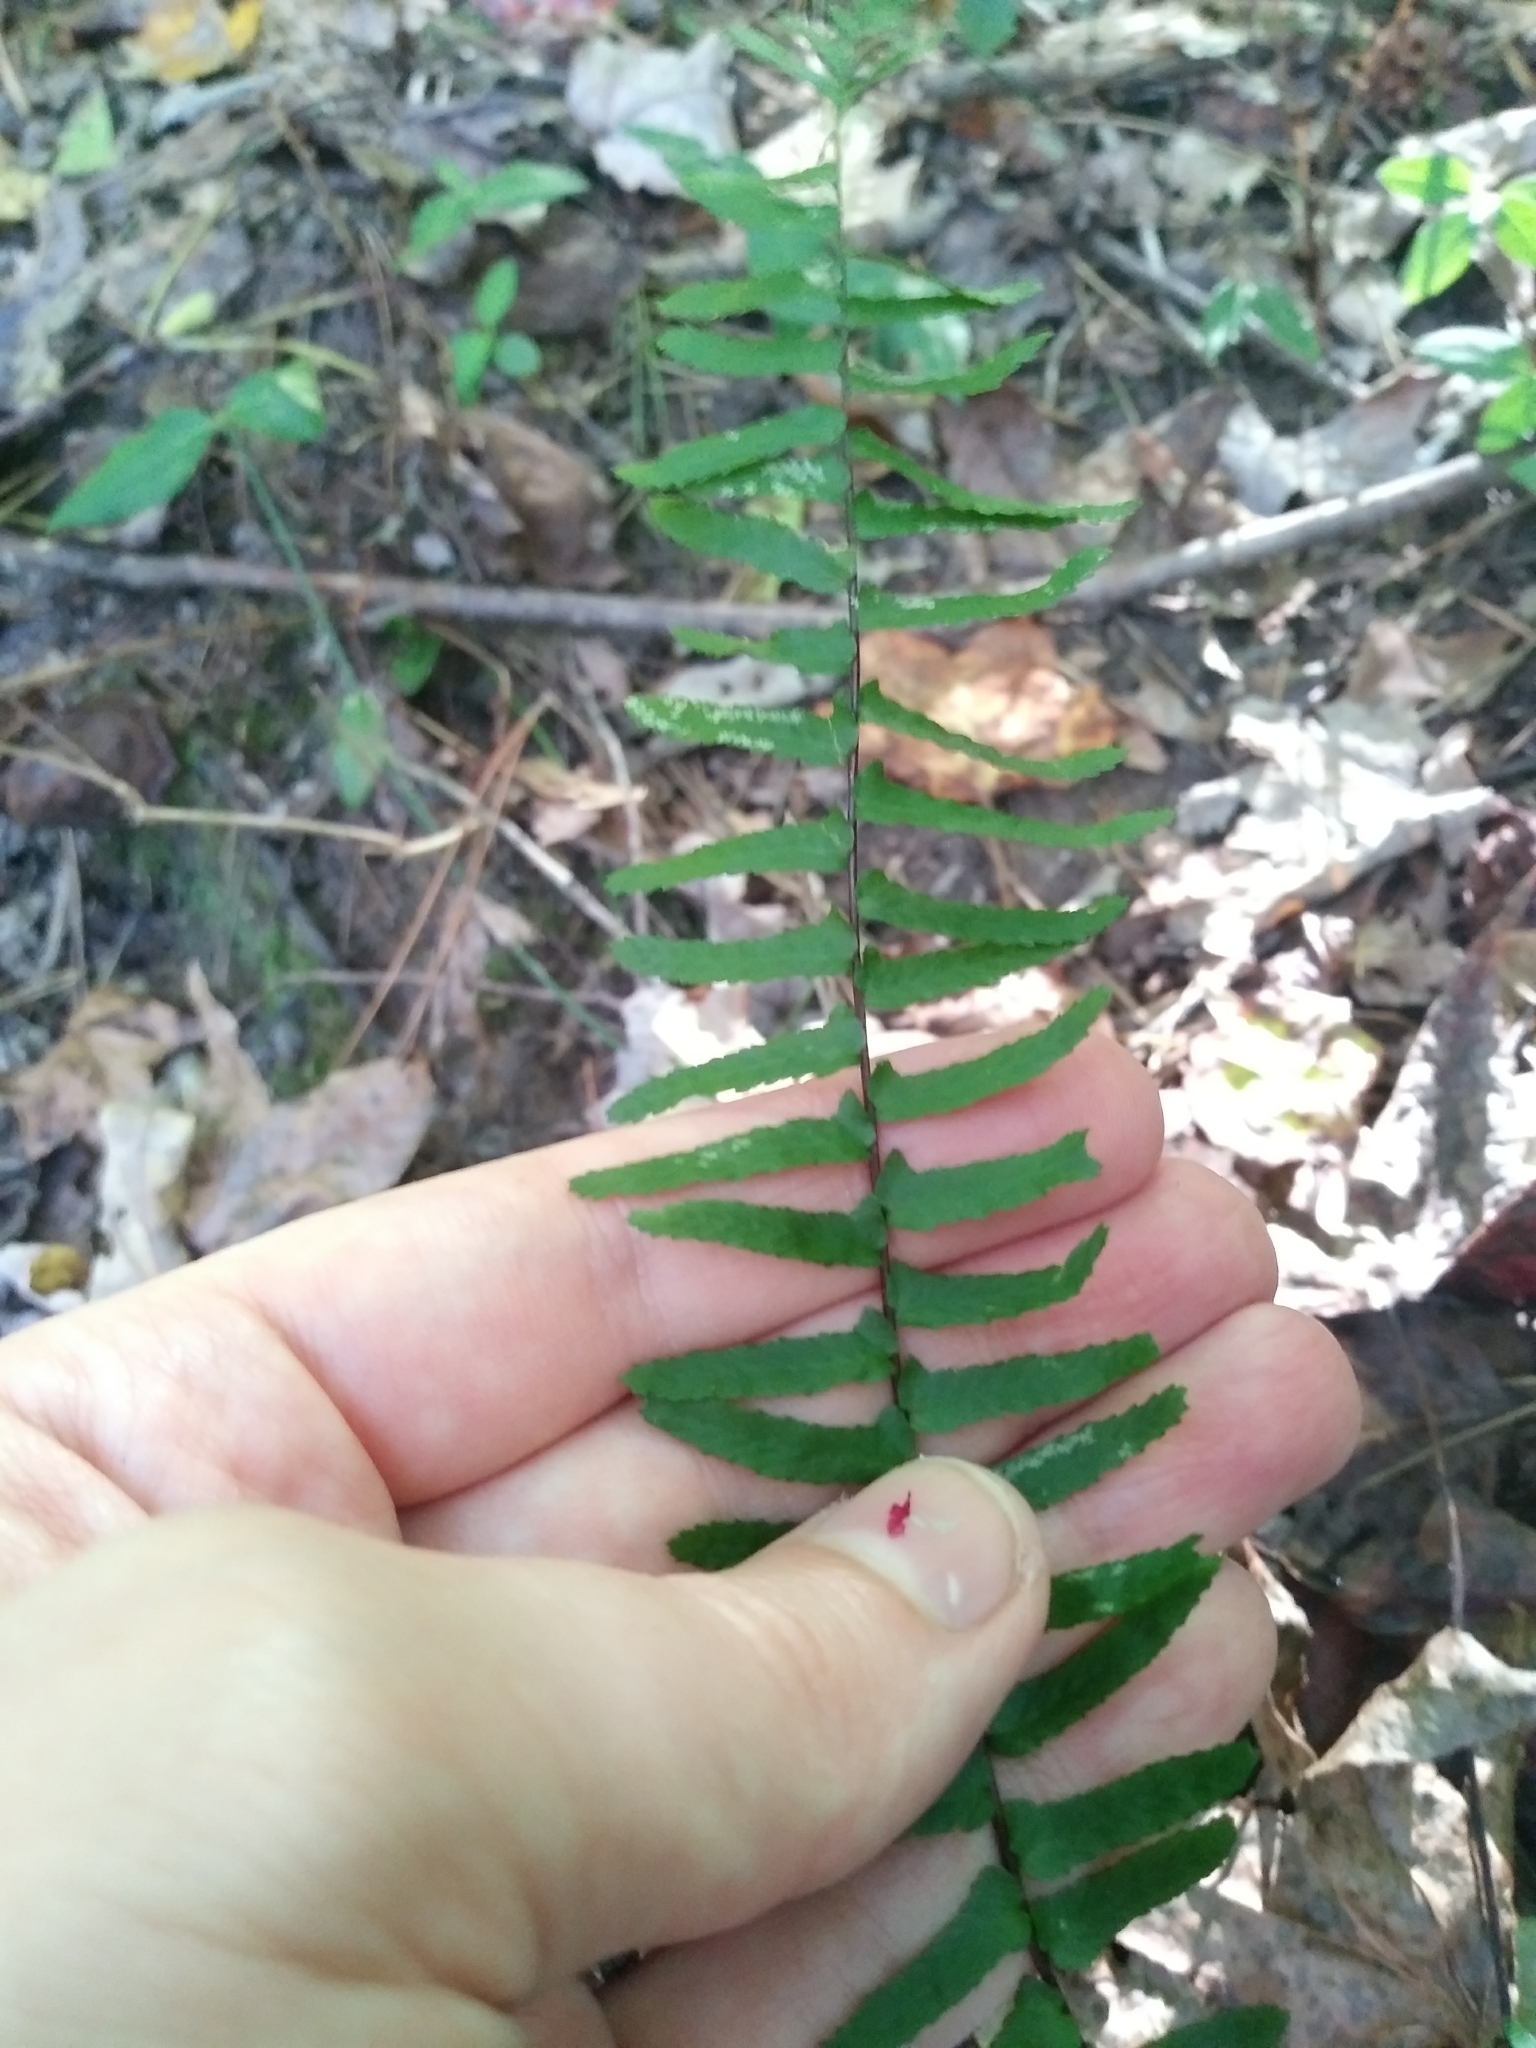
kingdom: Plantae
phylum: Tracheophyta
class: Polypodiopsida
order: Polypodiales
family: Aspleniaceae
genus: Asplenium
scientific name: Asplenium platyneuron
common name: Ebony spleenwort
